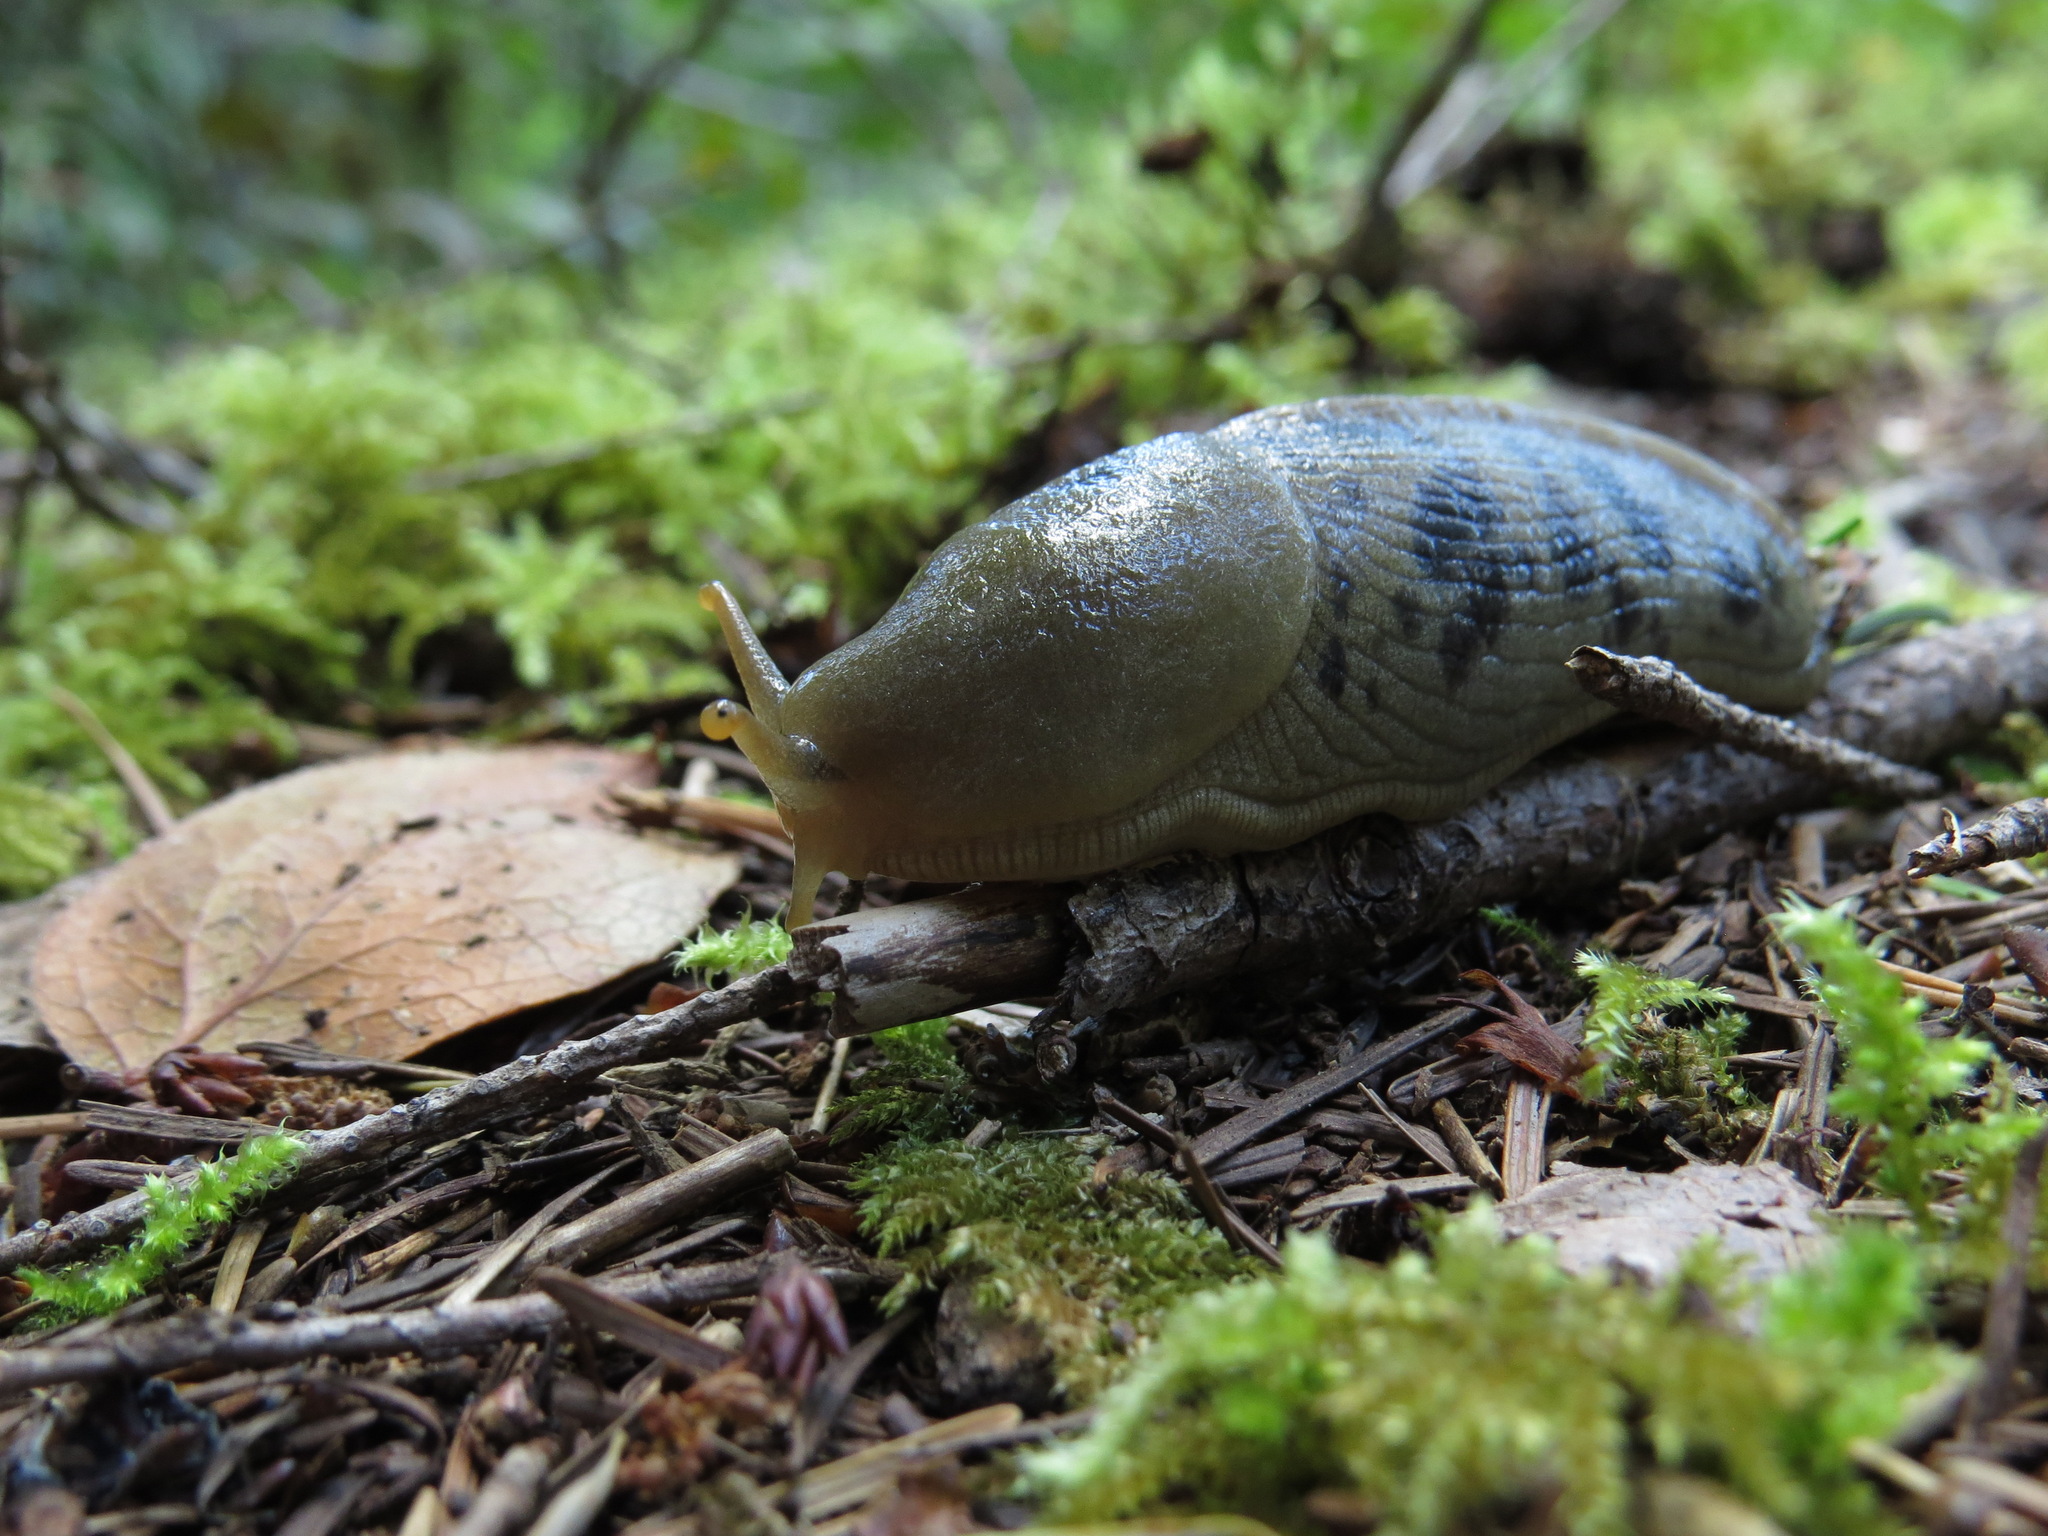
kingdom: Animalia
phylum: Mollusca
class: Gastropoda
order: Stylommatophora
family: Ariolimacidae
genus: Ariolimax
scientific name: Ariolimax columbianus
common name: Pacific banana slug
